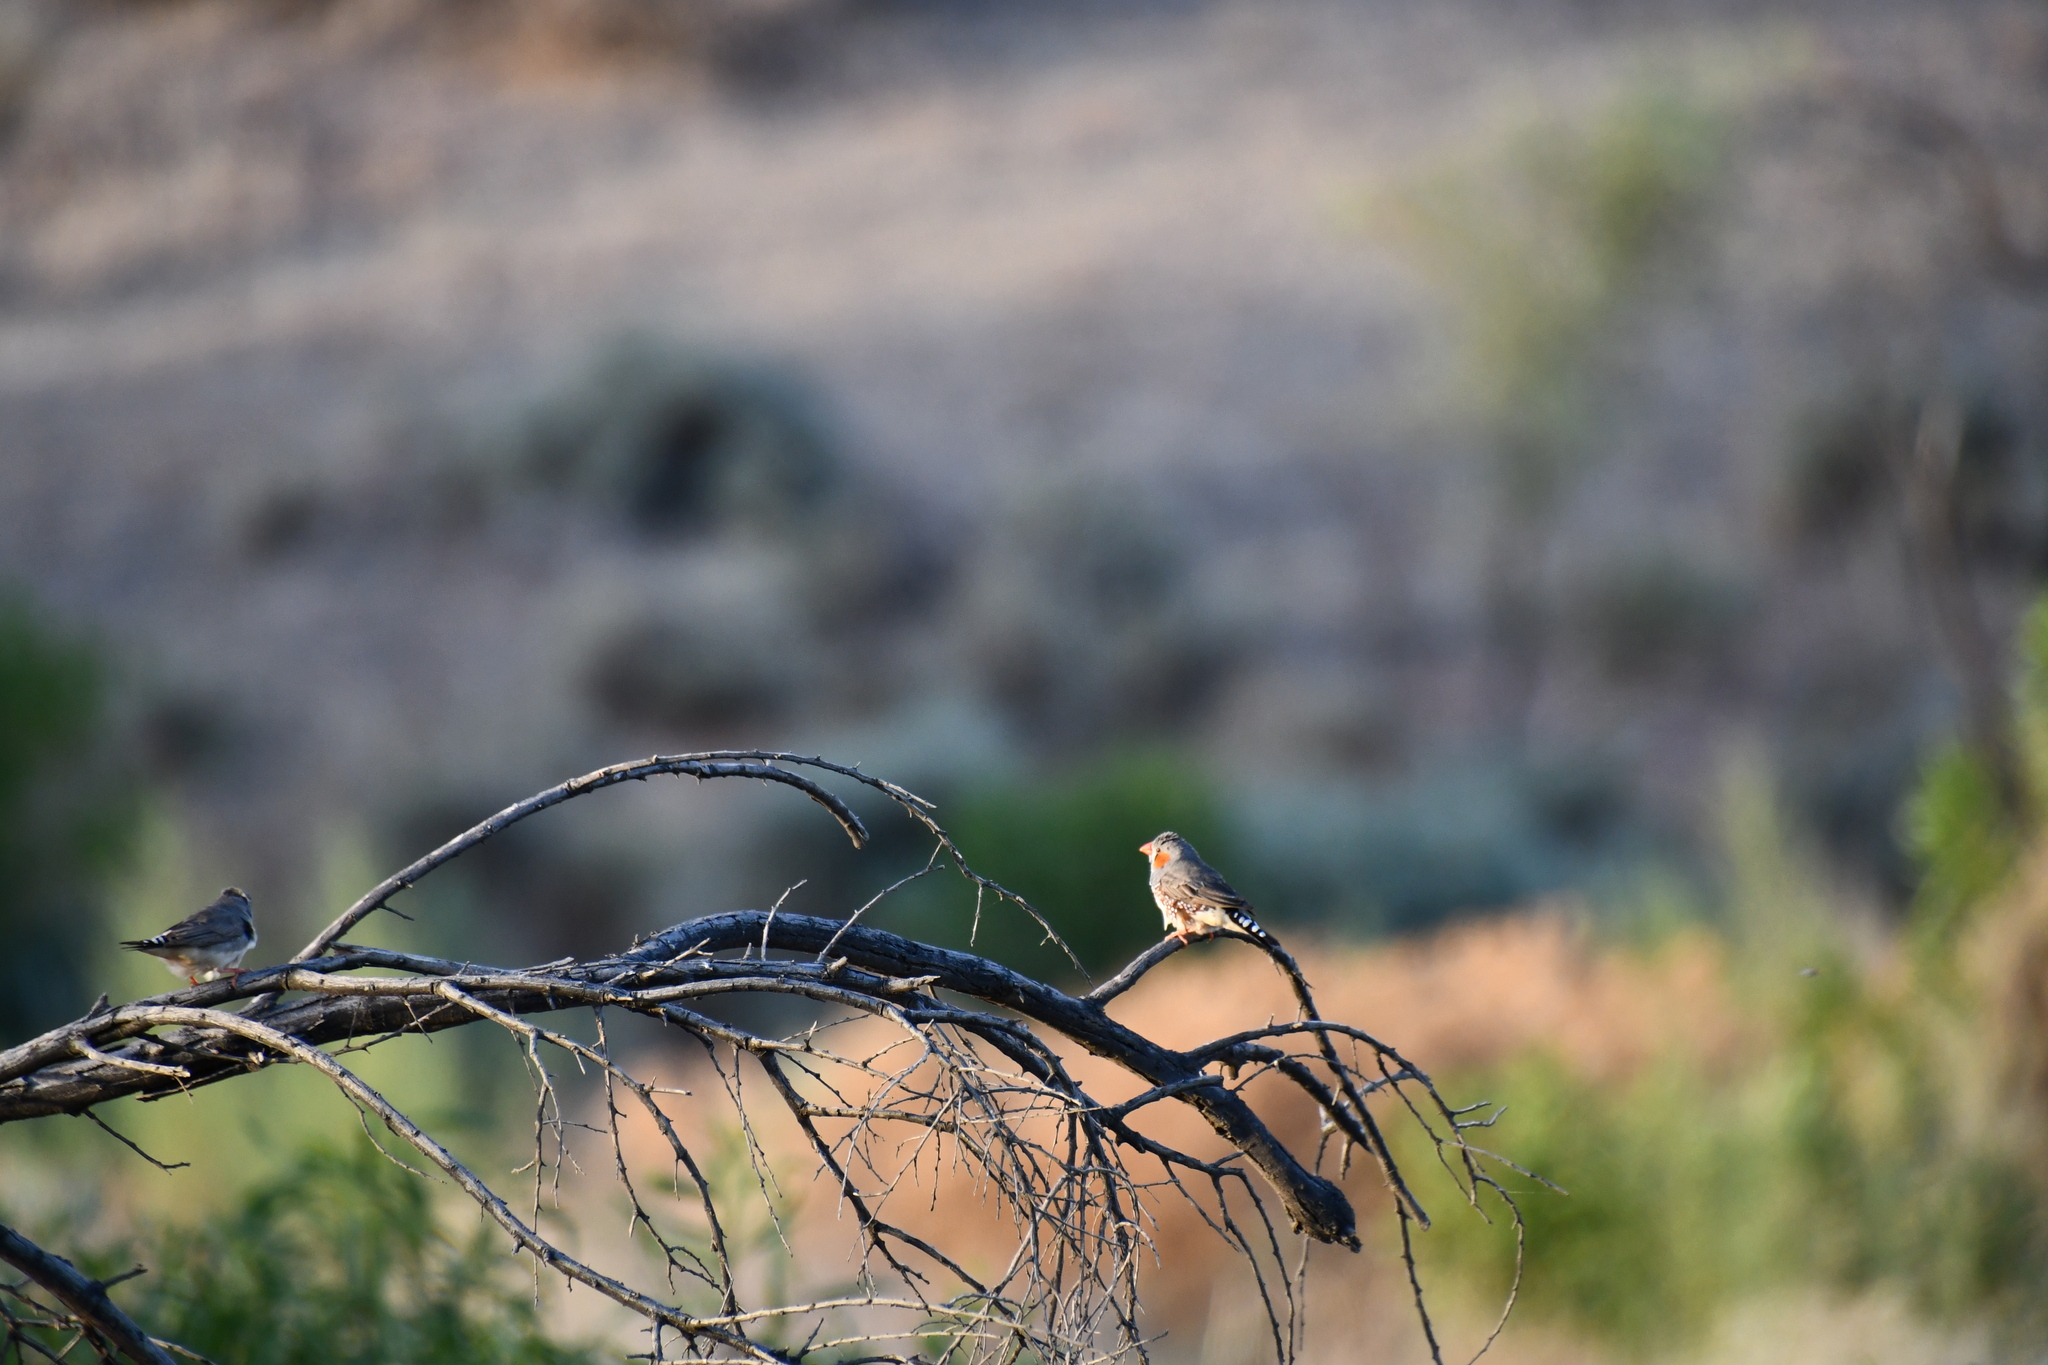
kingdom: Animalia
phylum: Chordata
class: Aves
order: Passeriformes
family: Estrildidae
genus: Taeniopygia
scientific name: Taeniopygia guttata
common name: Zebra finch
